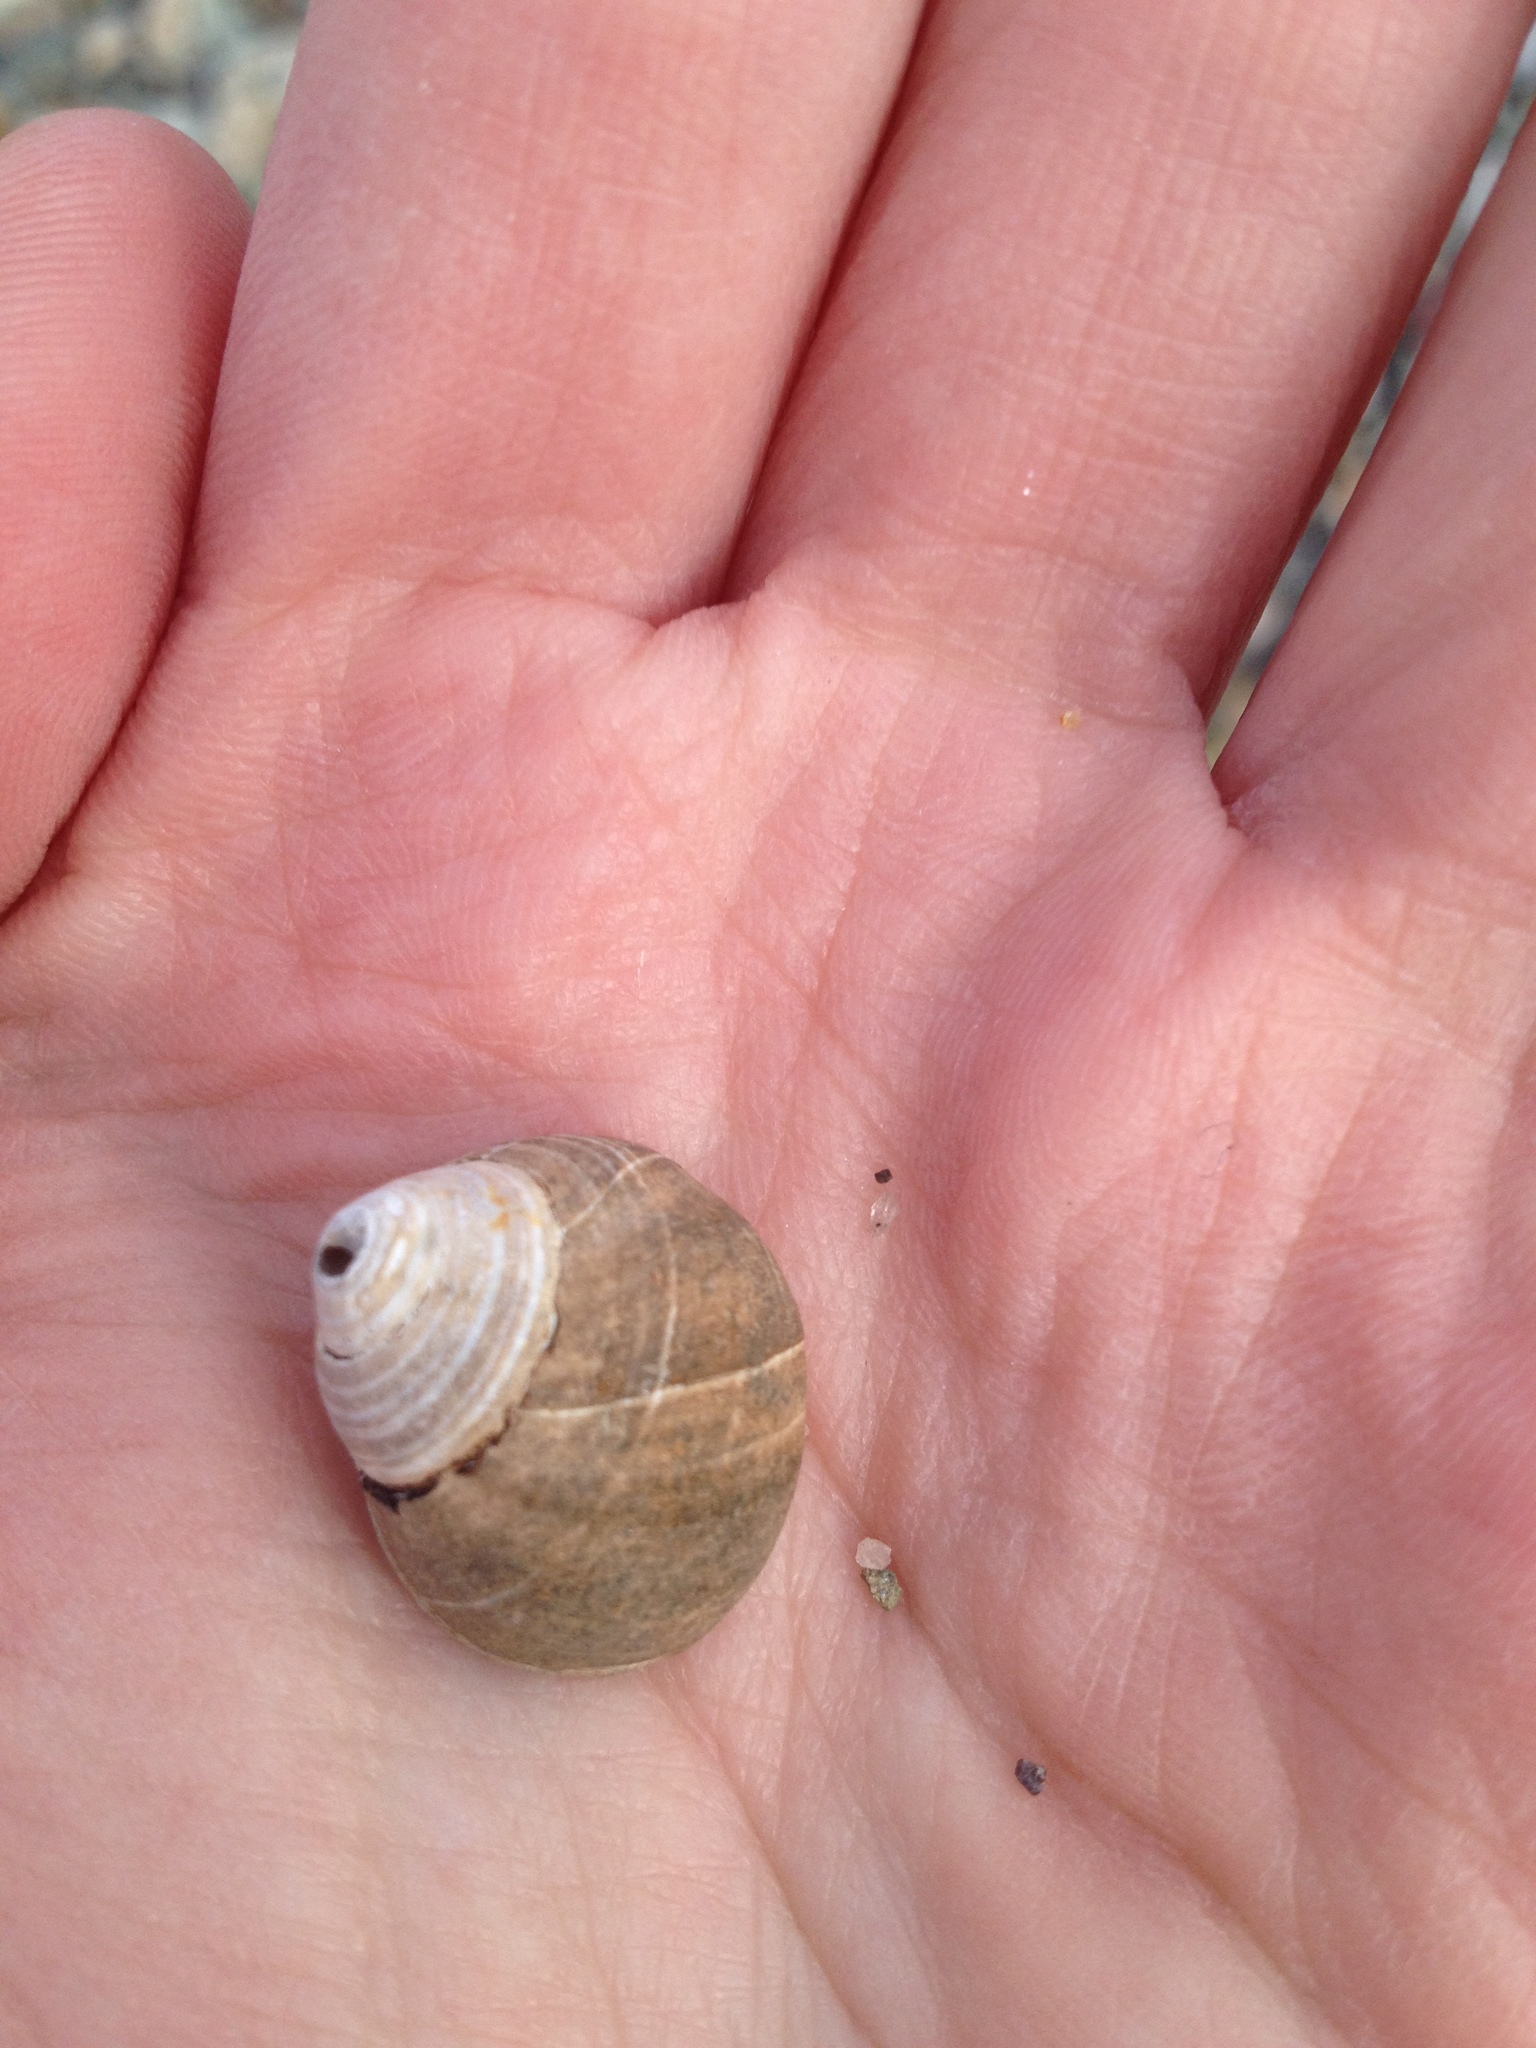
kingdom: Animalia
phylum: Mollusca
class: Gastropoda
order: Littorinimorpha
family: Littorinidae
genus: Littorina
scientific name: Littorina littorea
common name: Common periwinkle
